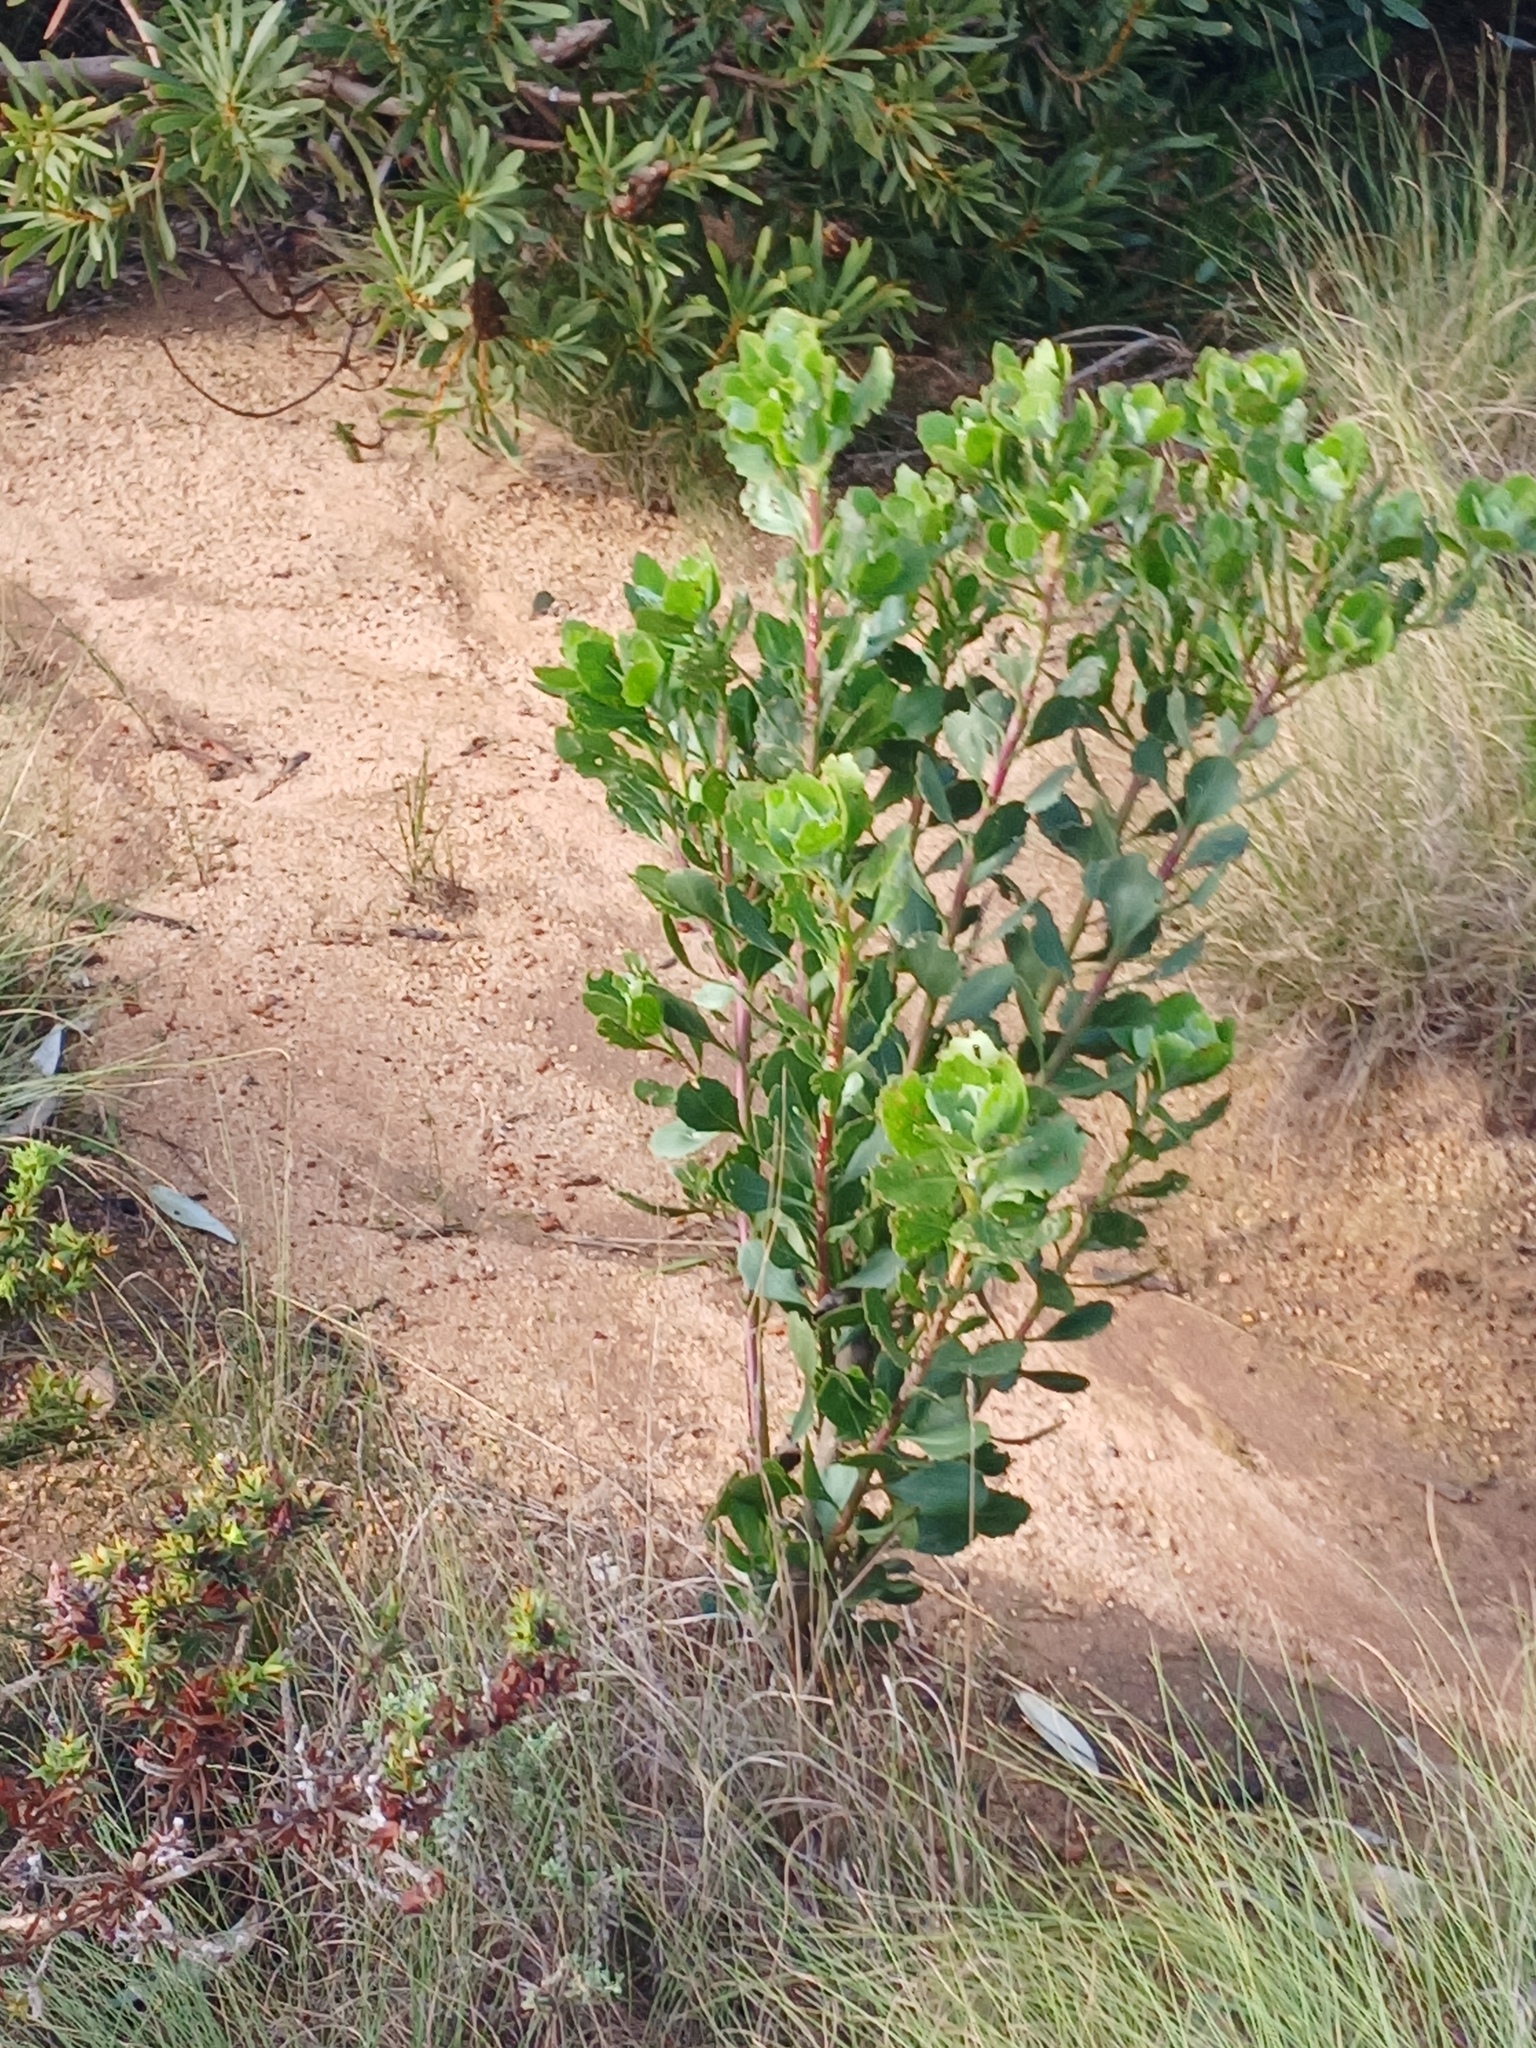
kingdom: Plantae
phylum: Tracheophyta
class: Magnoliopsida
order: Asterales
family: Asteraceae
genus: Osteospermum
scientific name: Osteospermum moniliferum
